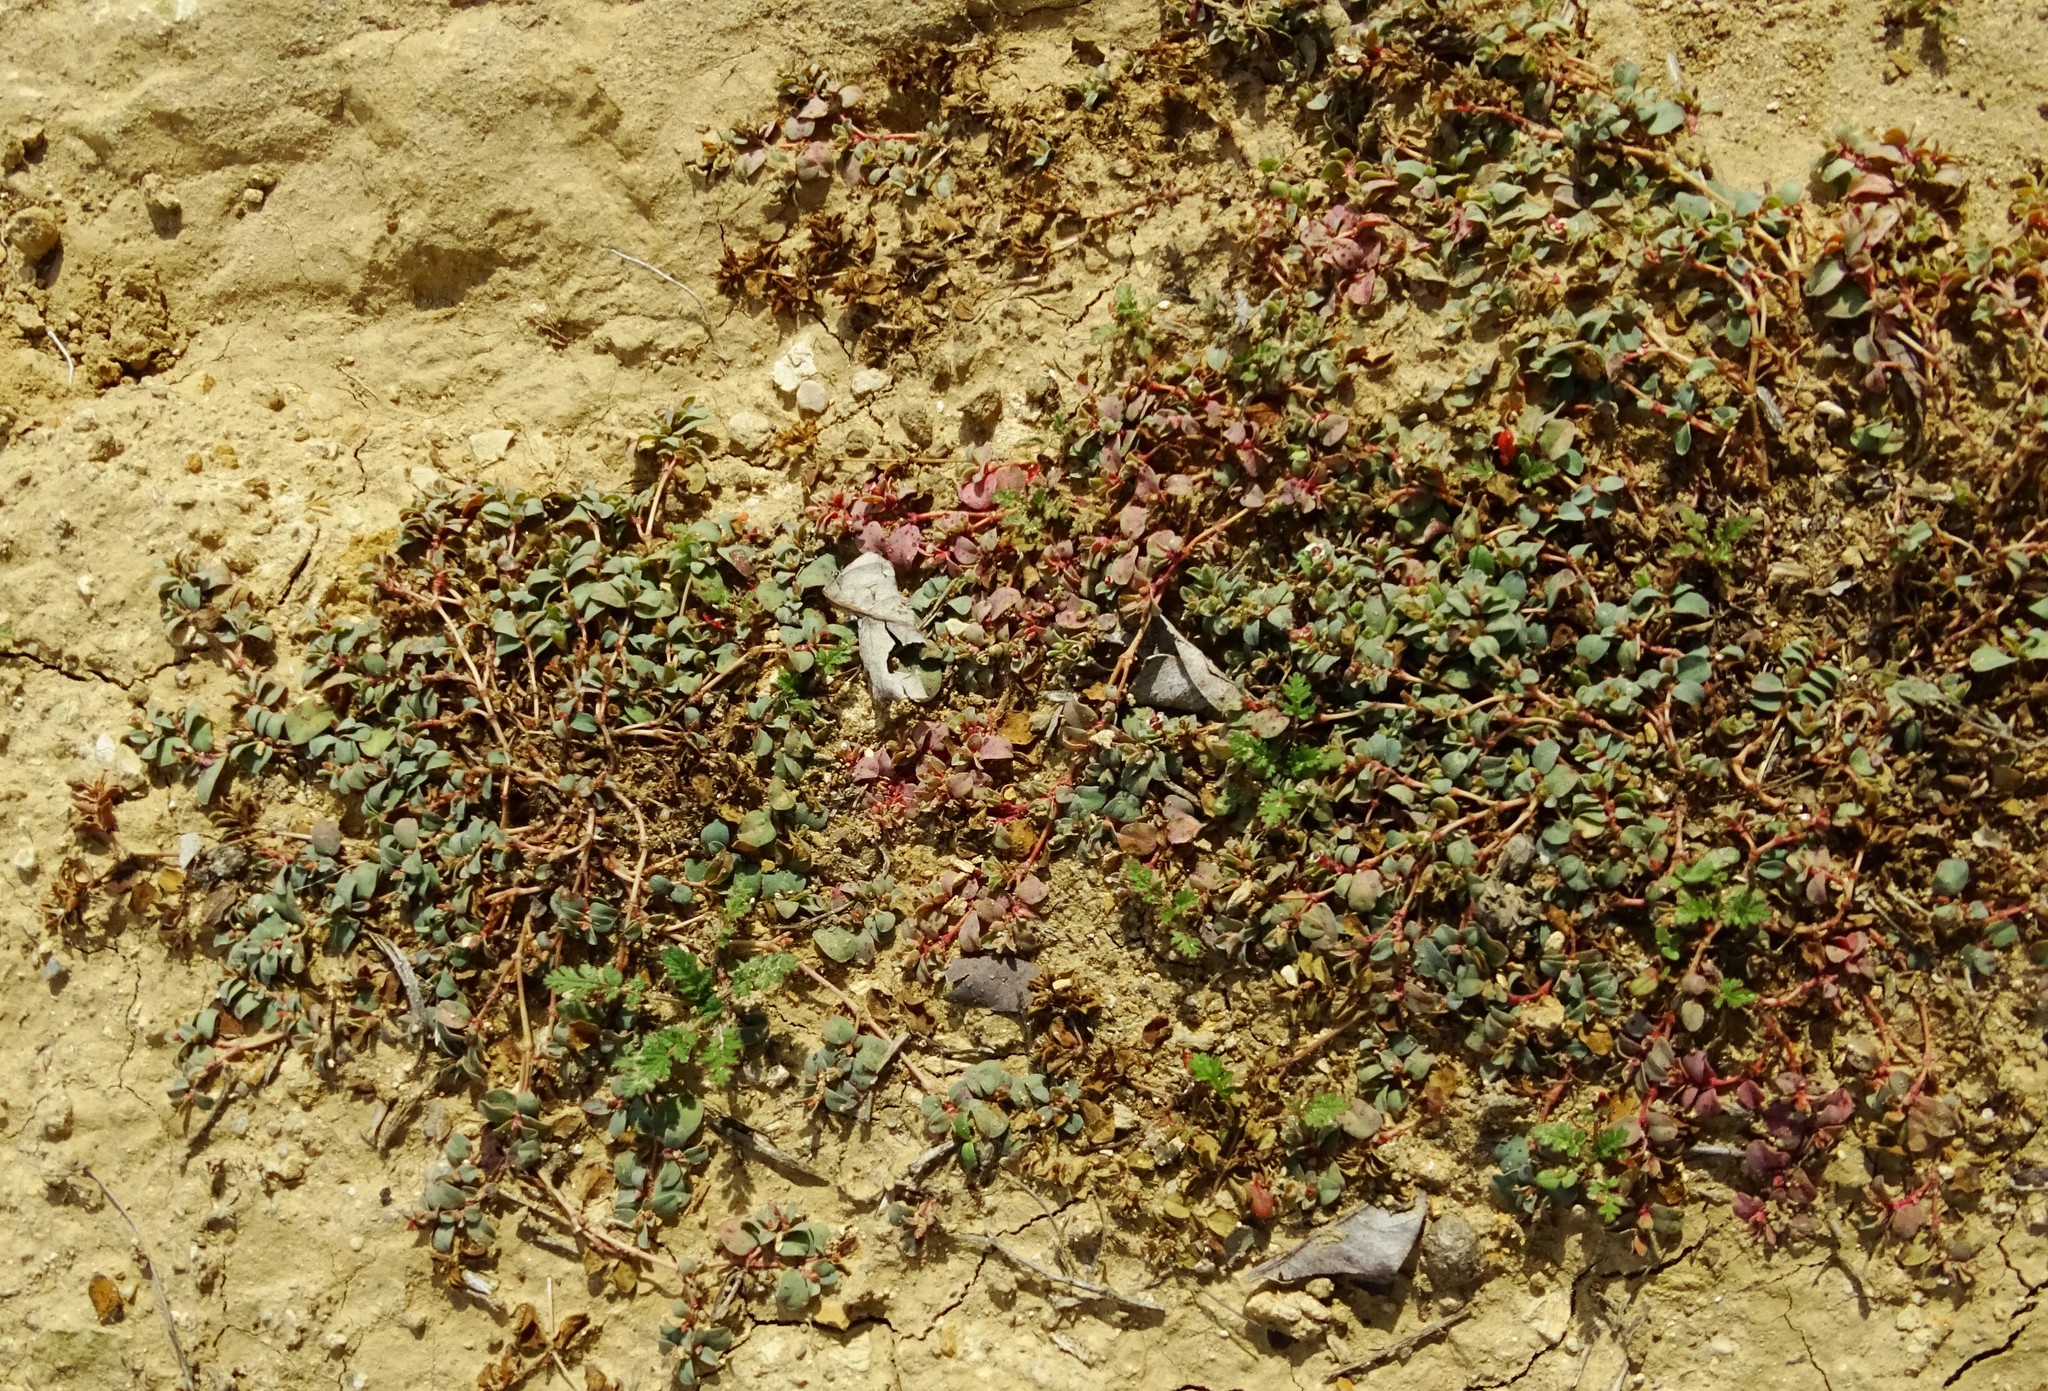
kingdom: Plantae
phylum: Tracheophyta
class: Magnoliopsida
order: Malpighiales
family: Euphorbiaceae
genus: Euphorbia
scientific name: Euphorbia albomarginata
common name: Whitemargin sandmat
